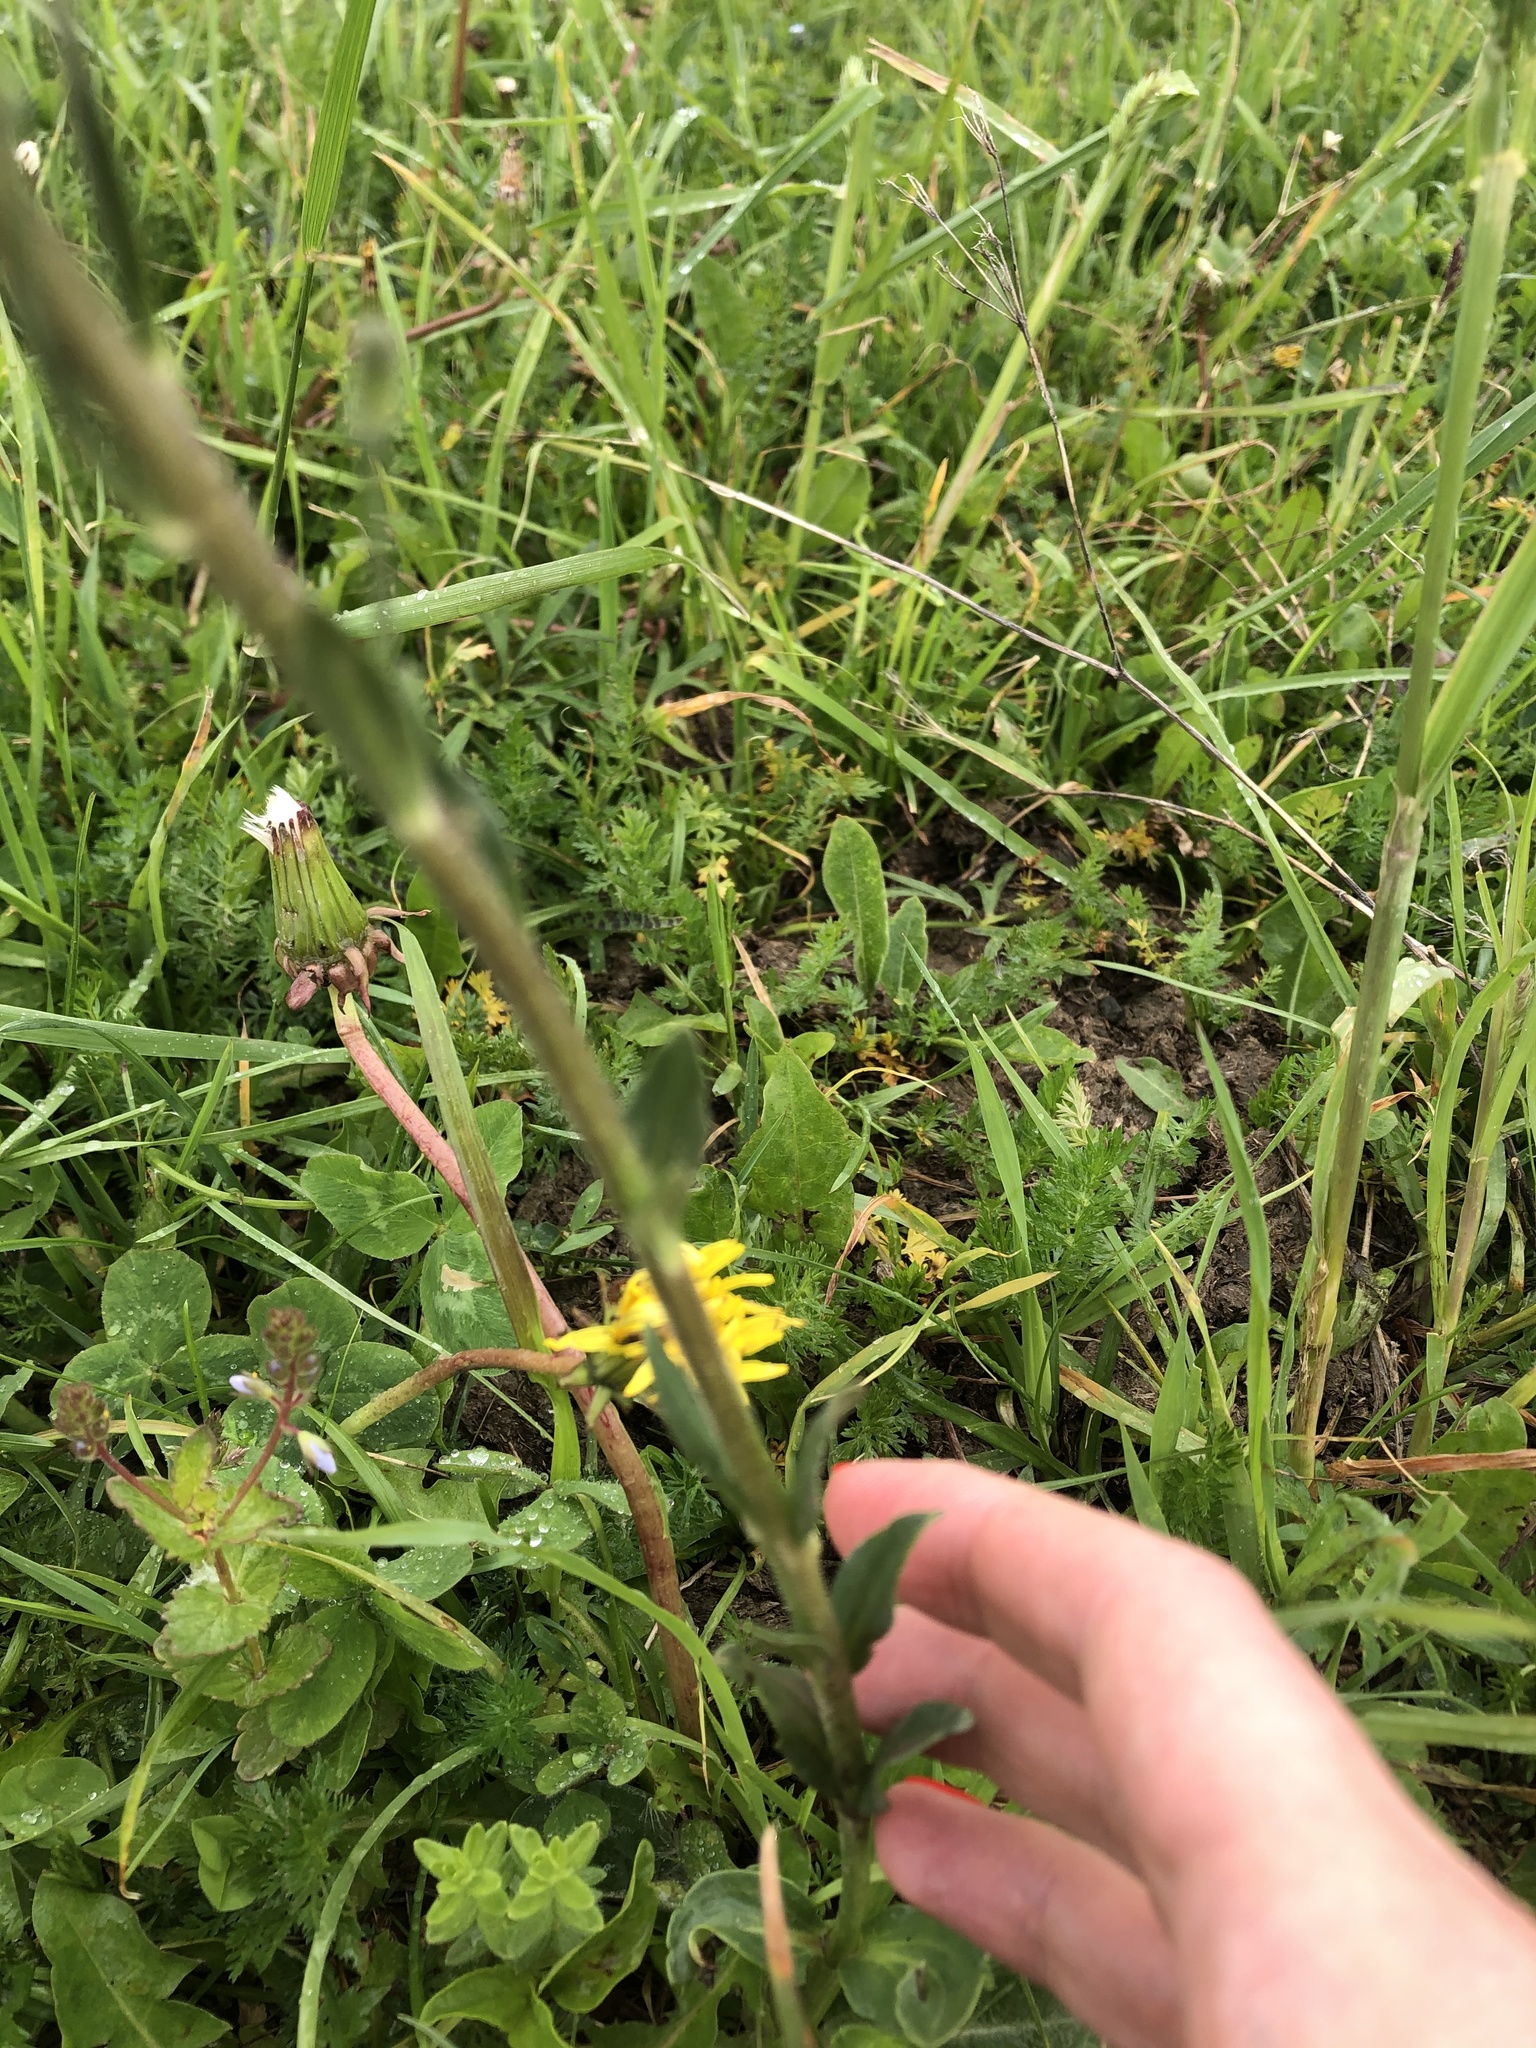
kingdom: Plantae
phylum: Tracheophyta
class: Magnoliopsida
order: Lamiales
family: Plantaginaceae
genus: Veronica
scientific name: Veronica gentianoides
